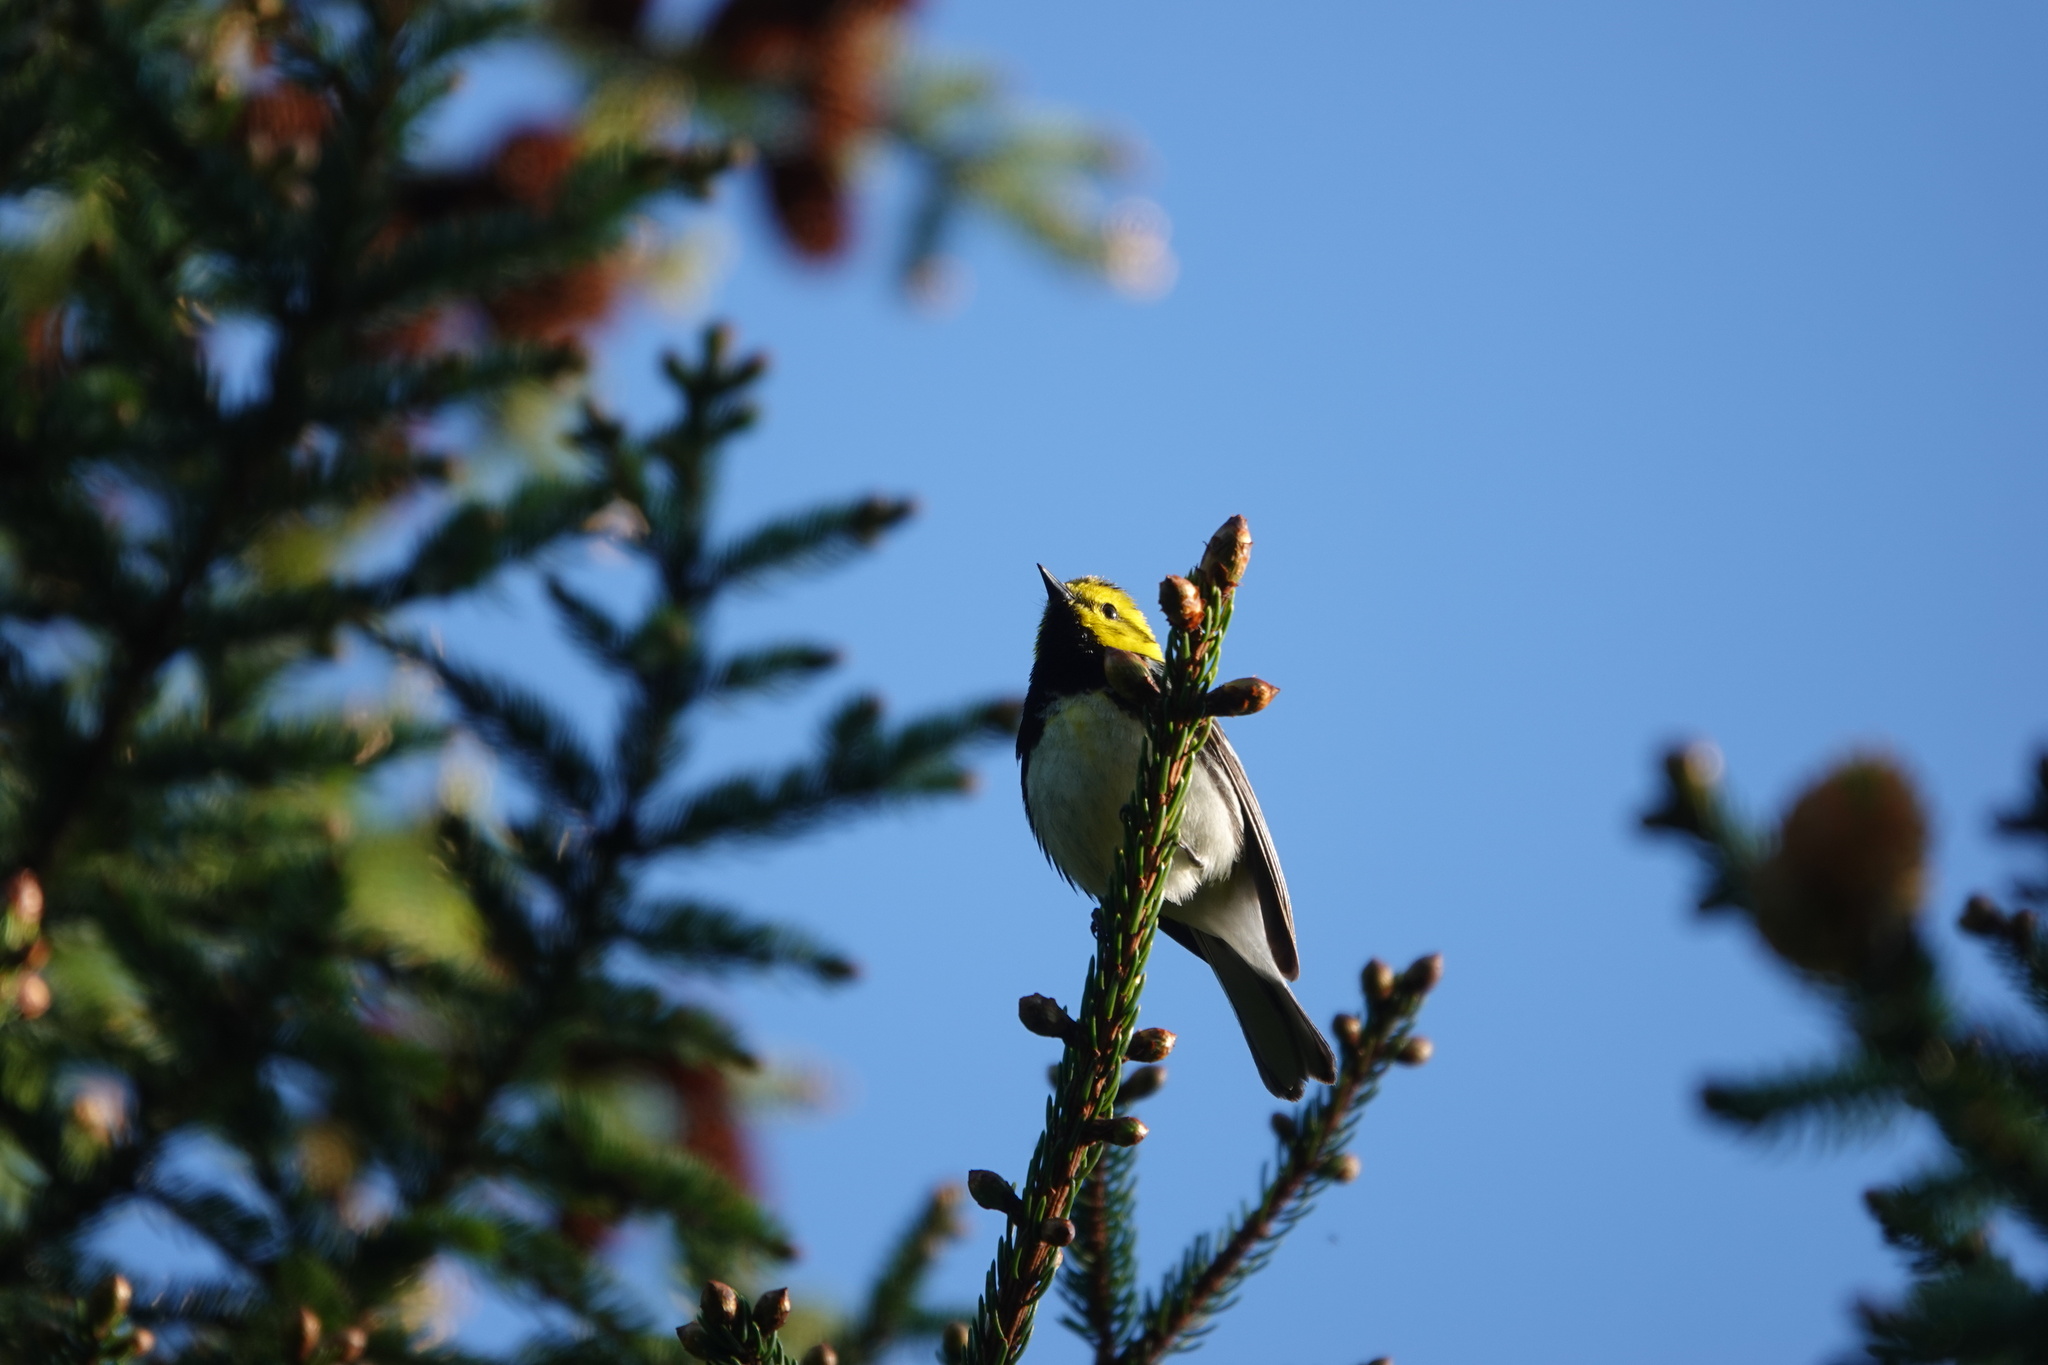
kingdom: Animalia
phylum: Chordata
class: Aves
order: Passeriformes
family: Parulidae
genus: Setophaga
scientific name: Setophaga virens
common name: Black-throated green warbler
